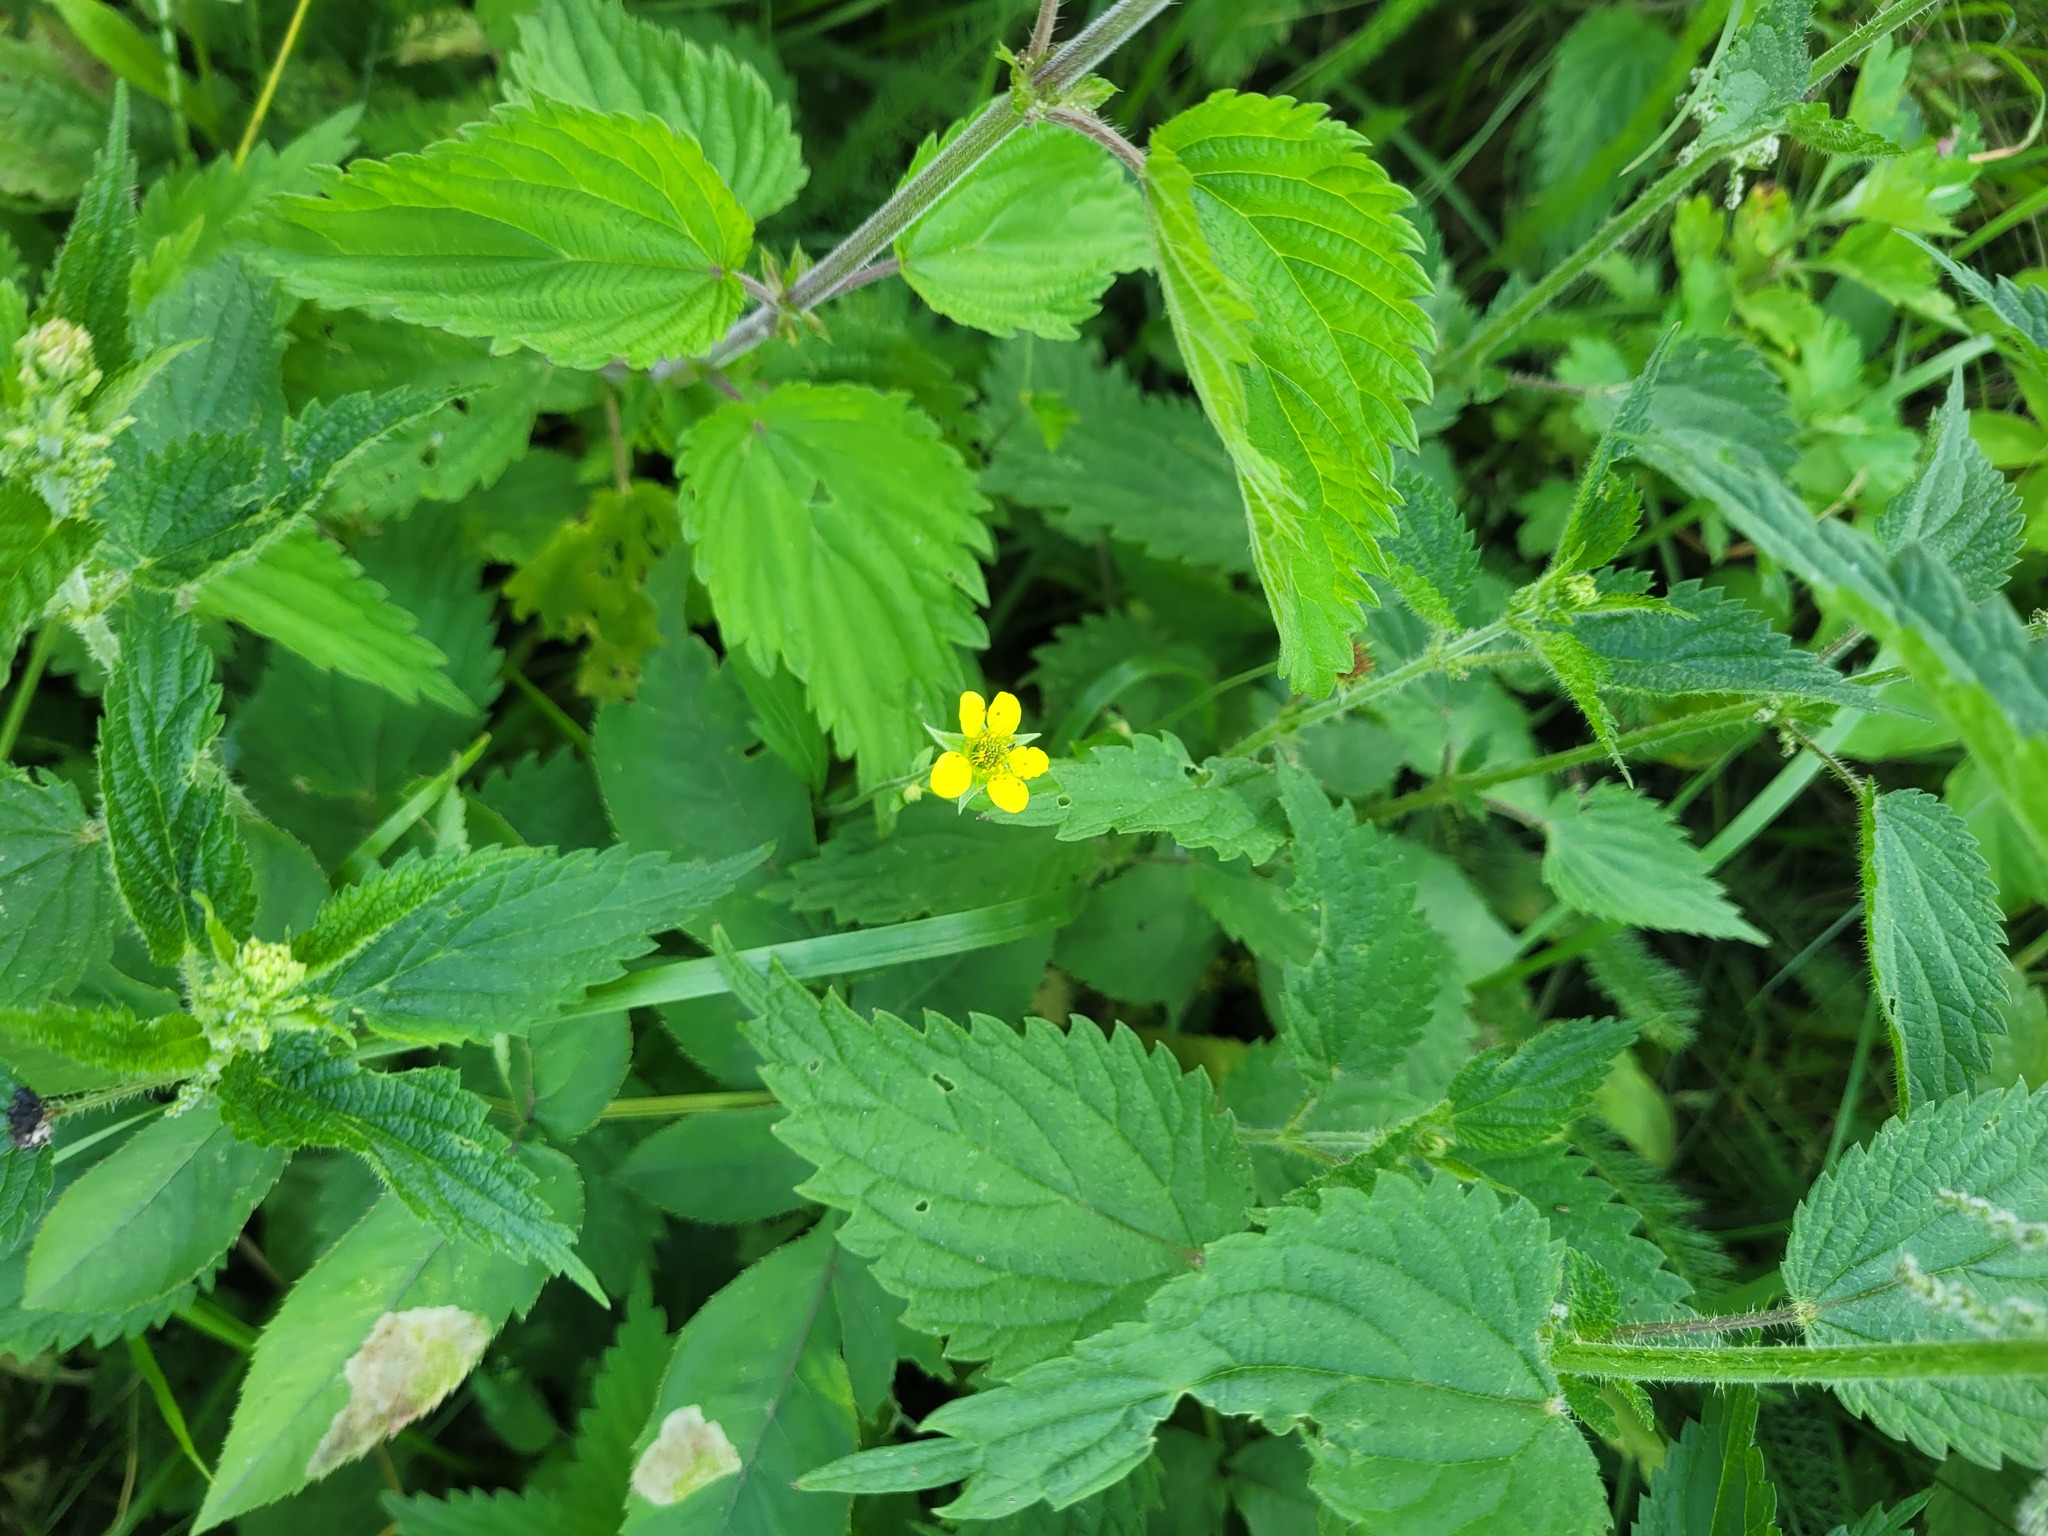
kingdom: Plantae
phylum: Tracheophyta
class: Magnoliopsida
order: Rosales
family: Rosaceae
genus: Geum
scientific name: Geum urbanum
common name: Wood avens
